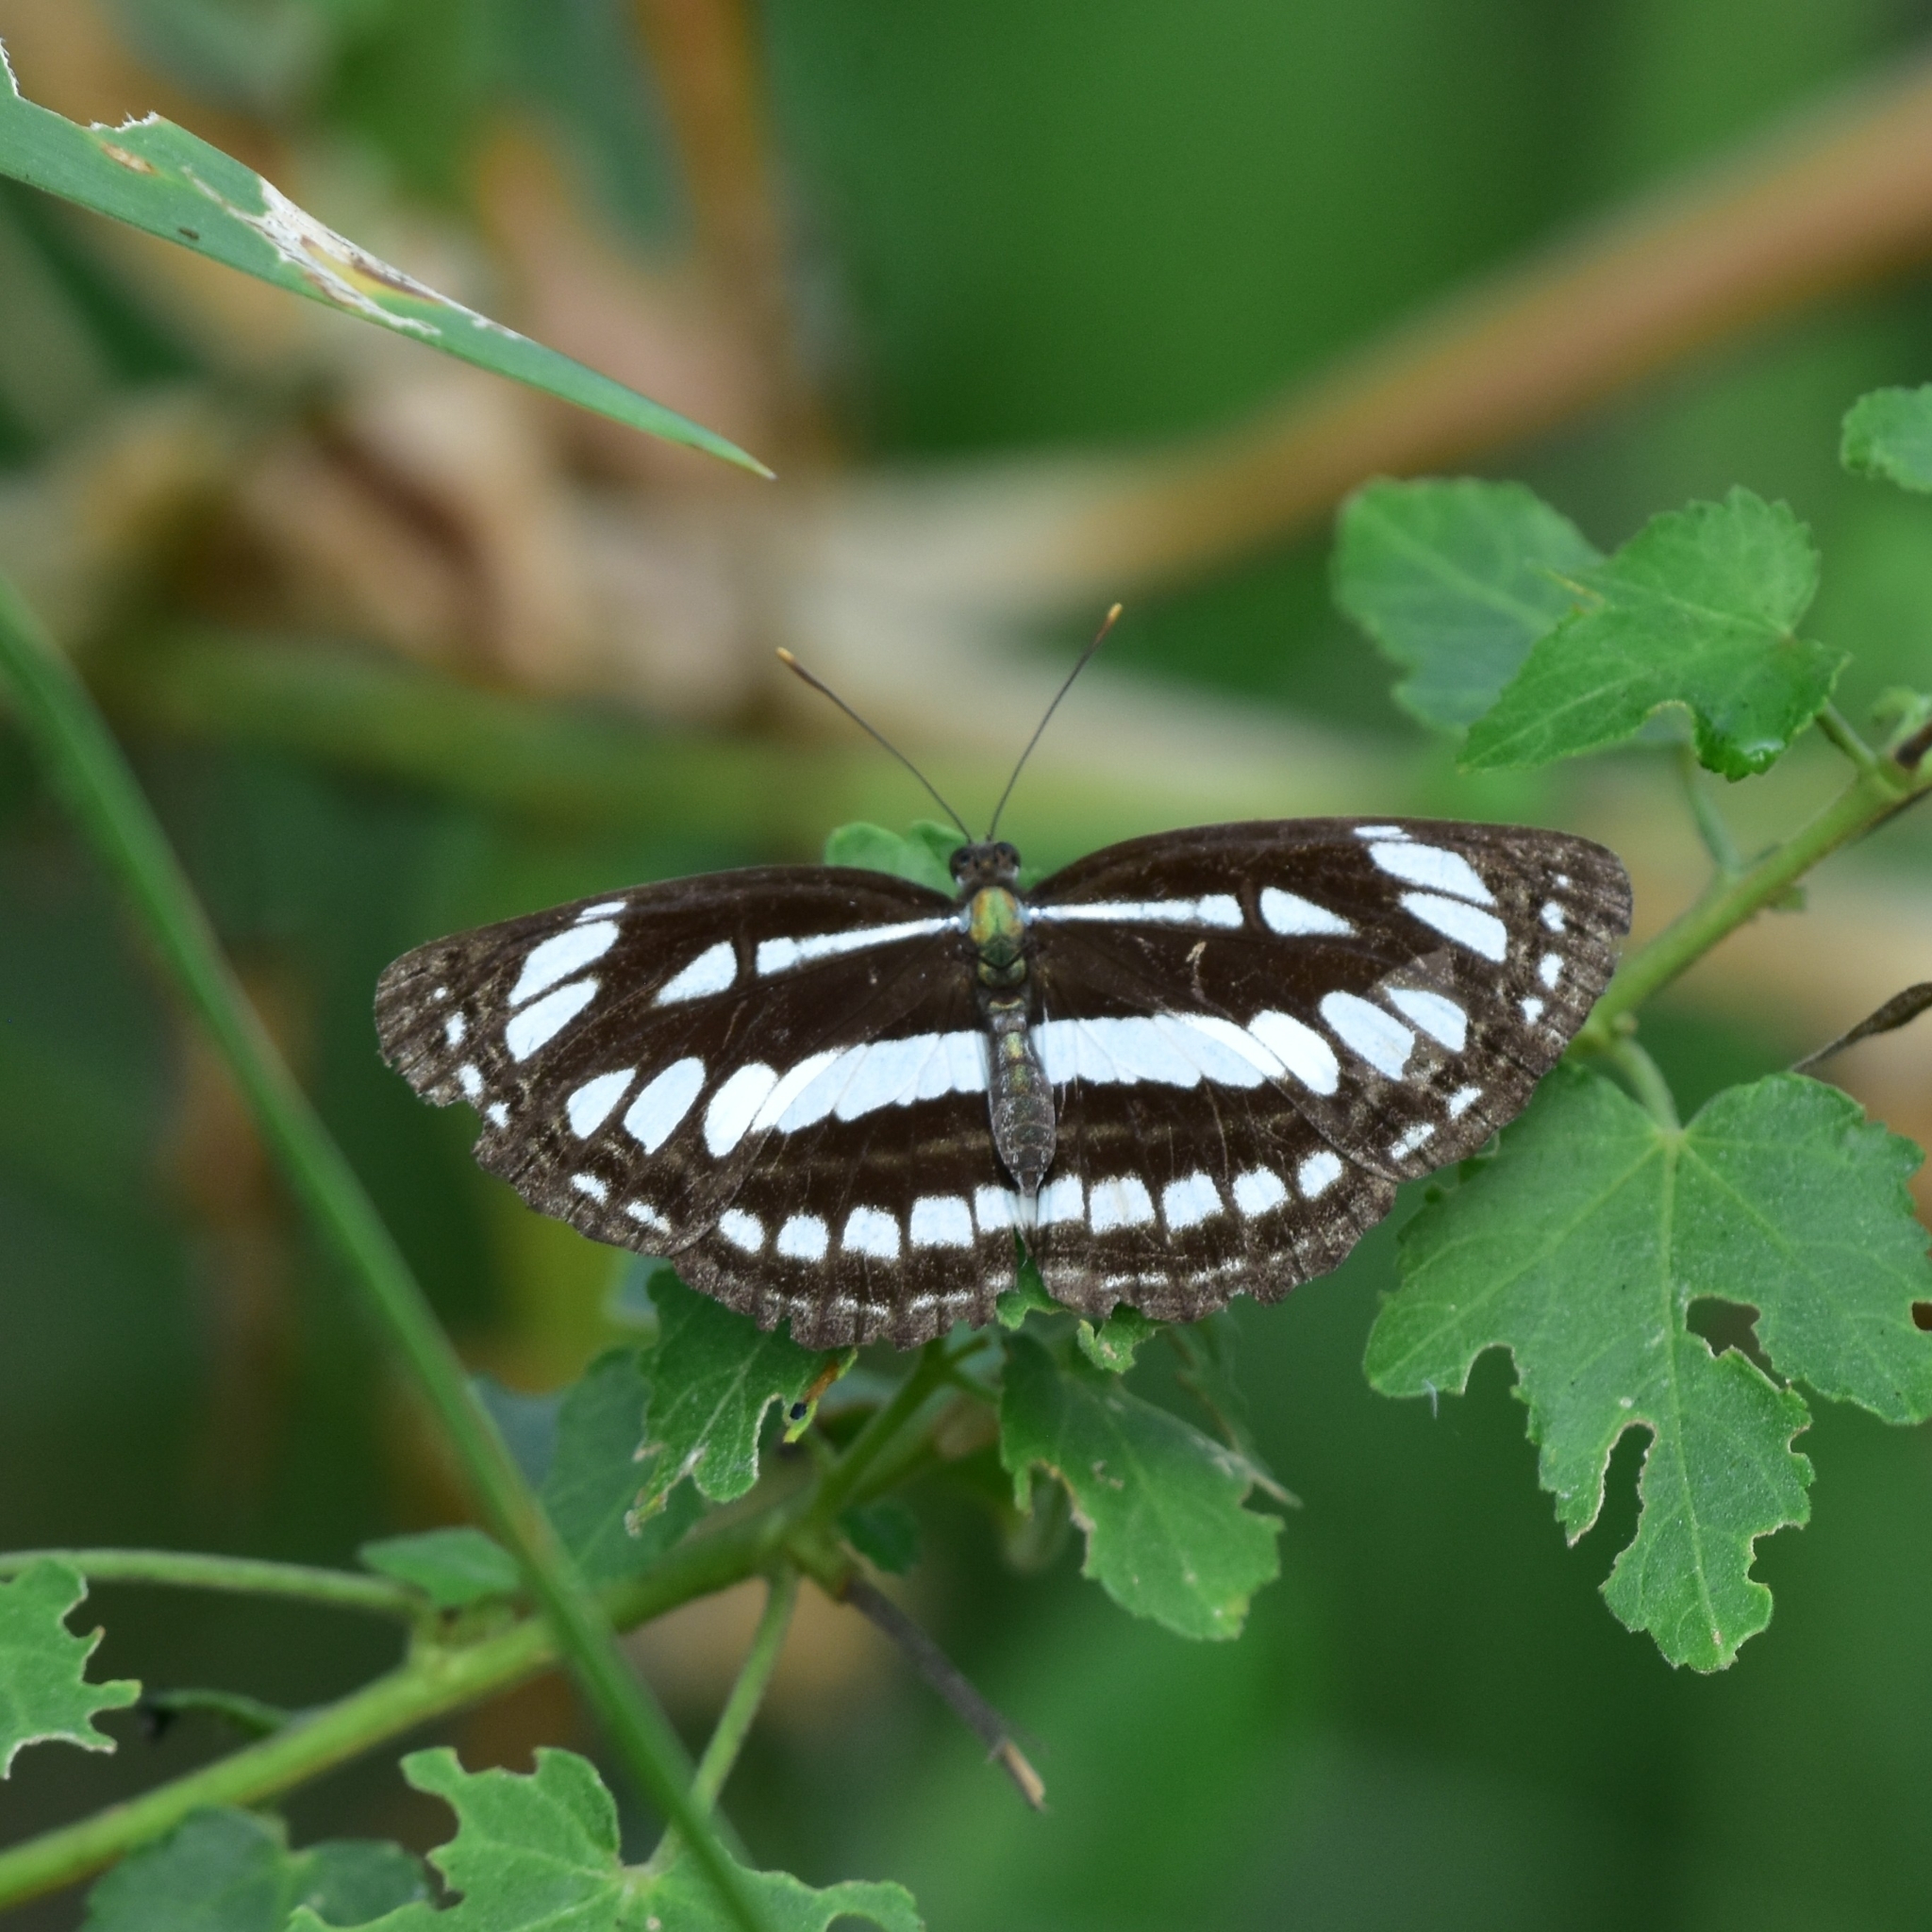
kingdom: Animalia
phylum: Arthropoda
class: Insecta
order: Lepidoptera
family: Nymphalidae
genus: Neptis
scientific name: Neptis hylas
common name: Common sailer
